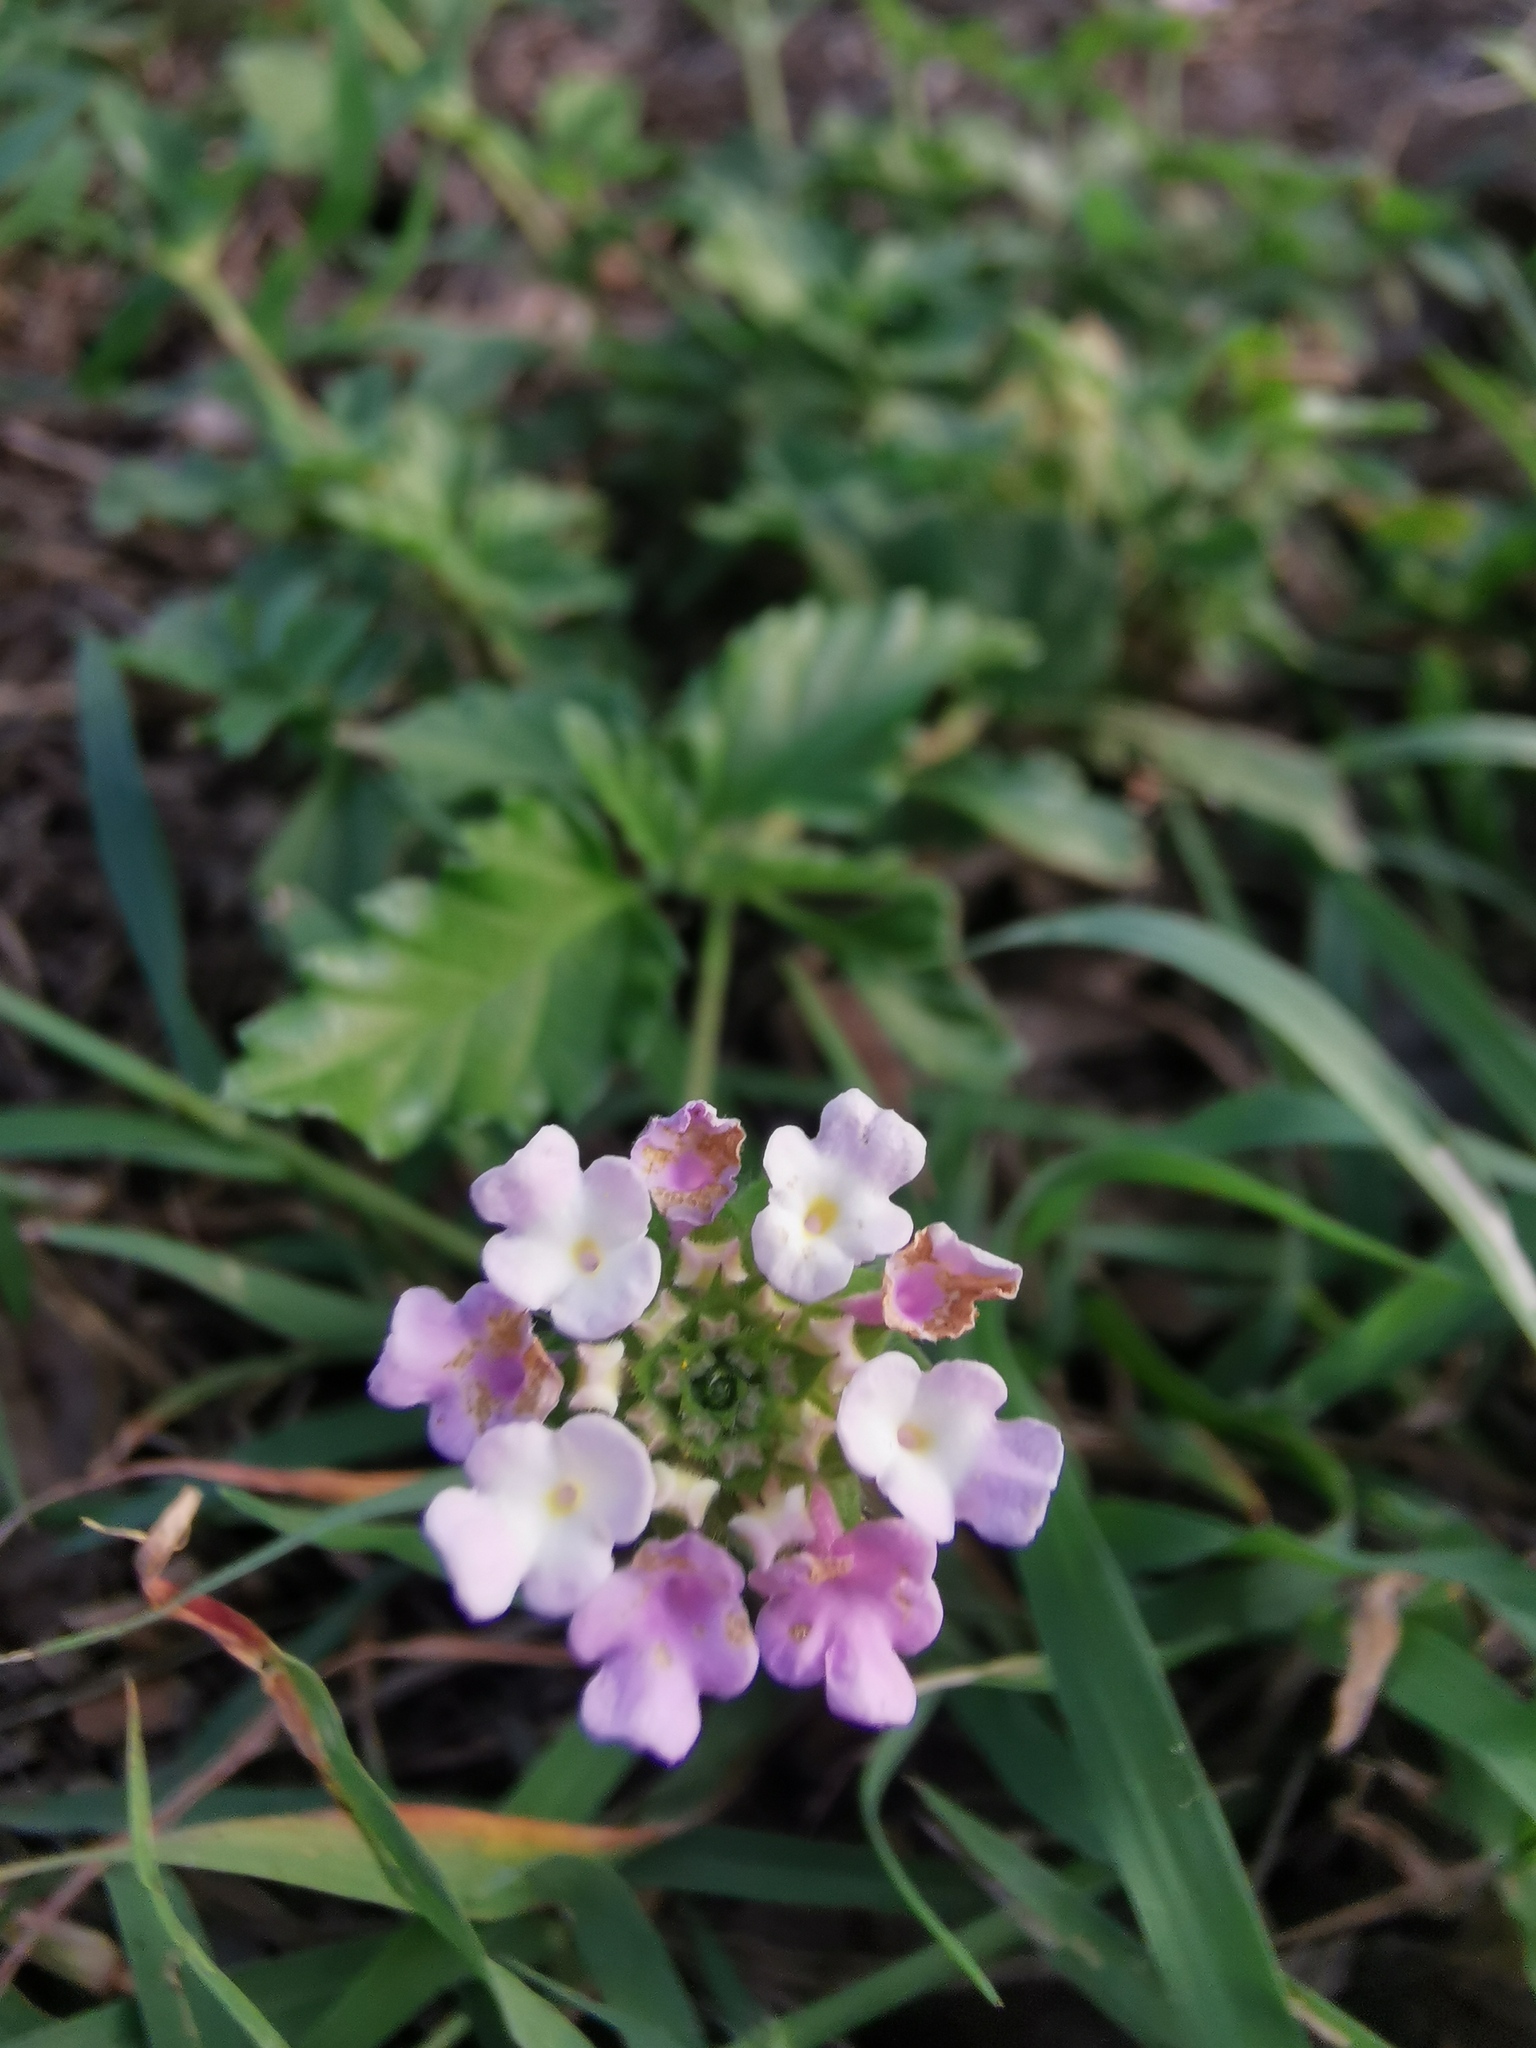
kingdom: Plantae
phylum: Tracheophyta
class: Magnoliopsida
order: Lamiales
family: Verbenaceae
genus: Lantana
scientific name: Lantana achyranthifolia
